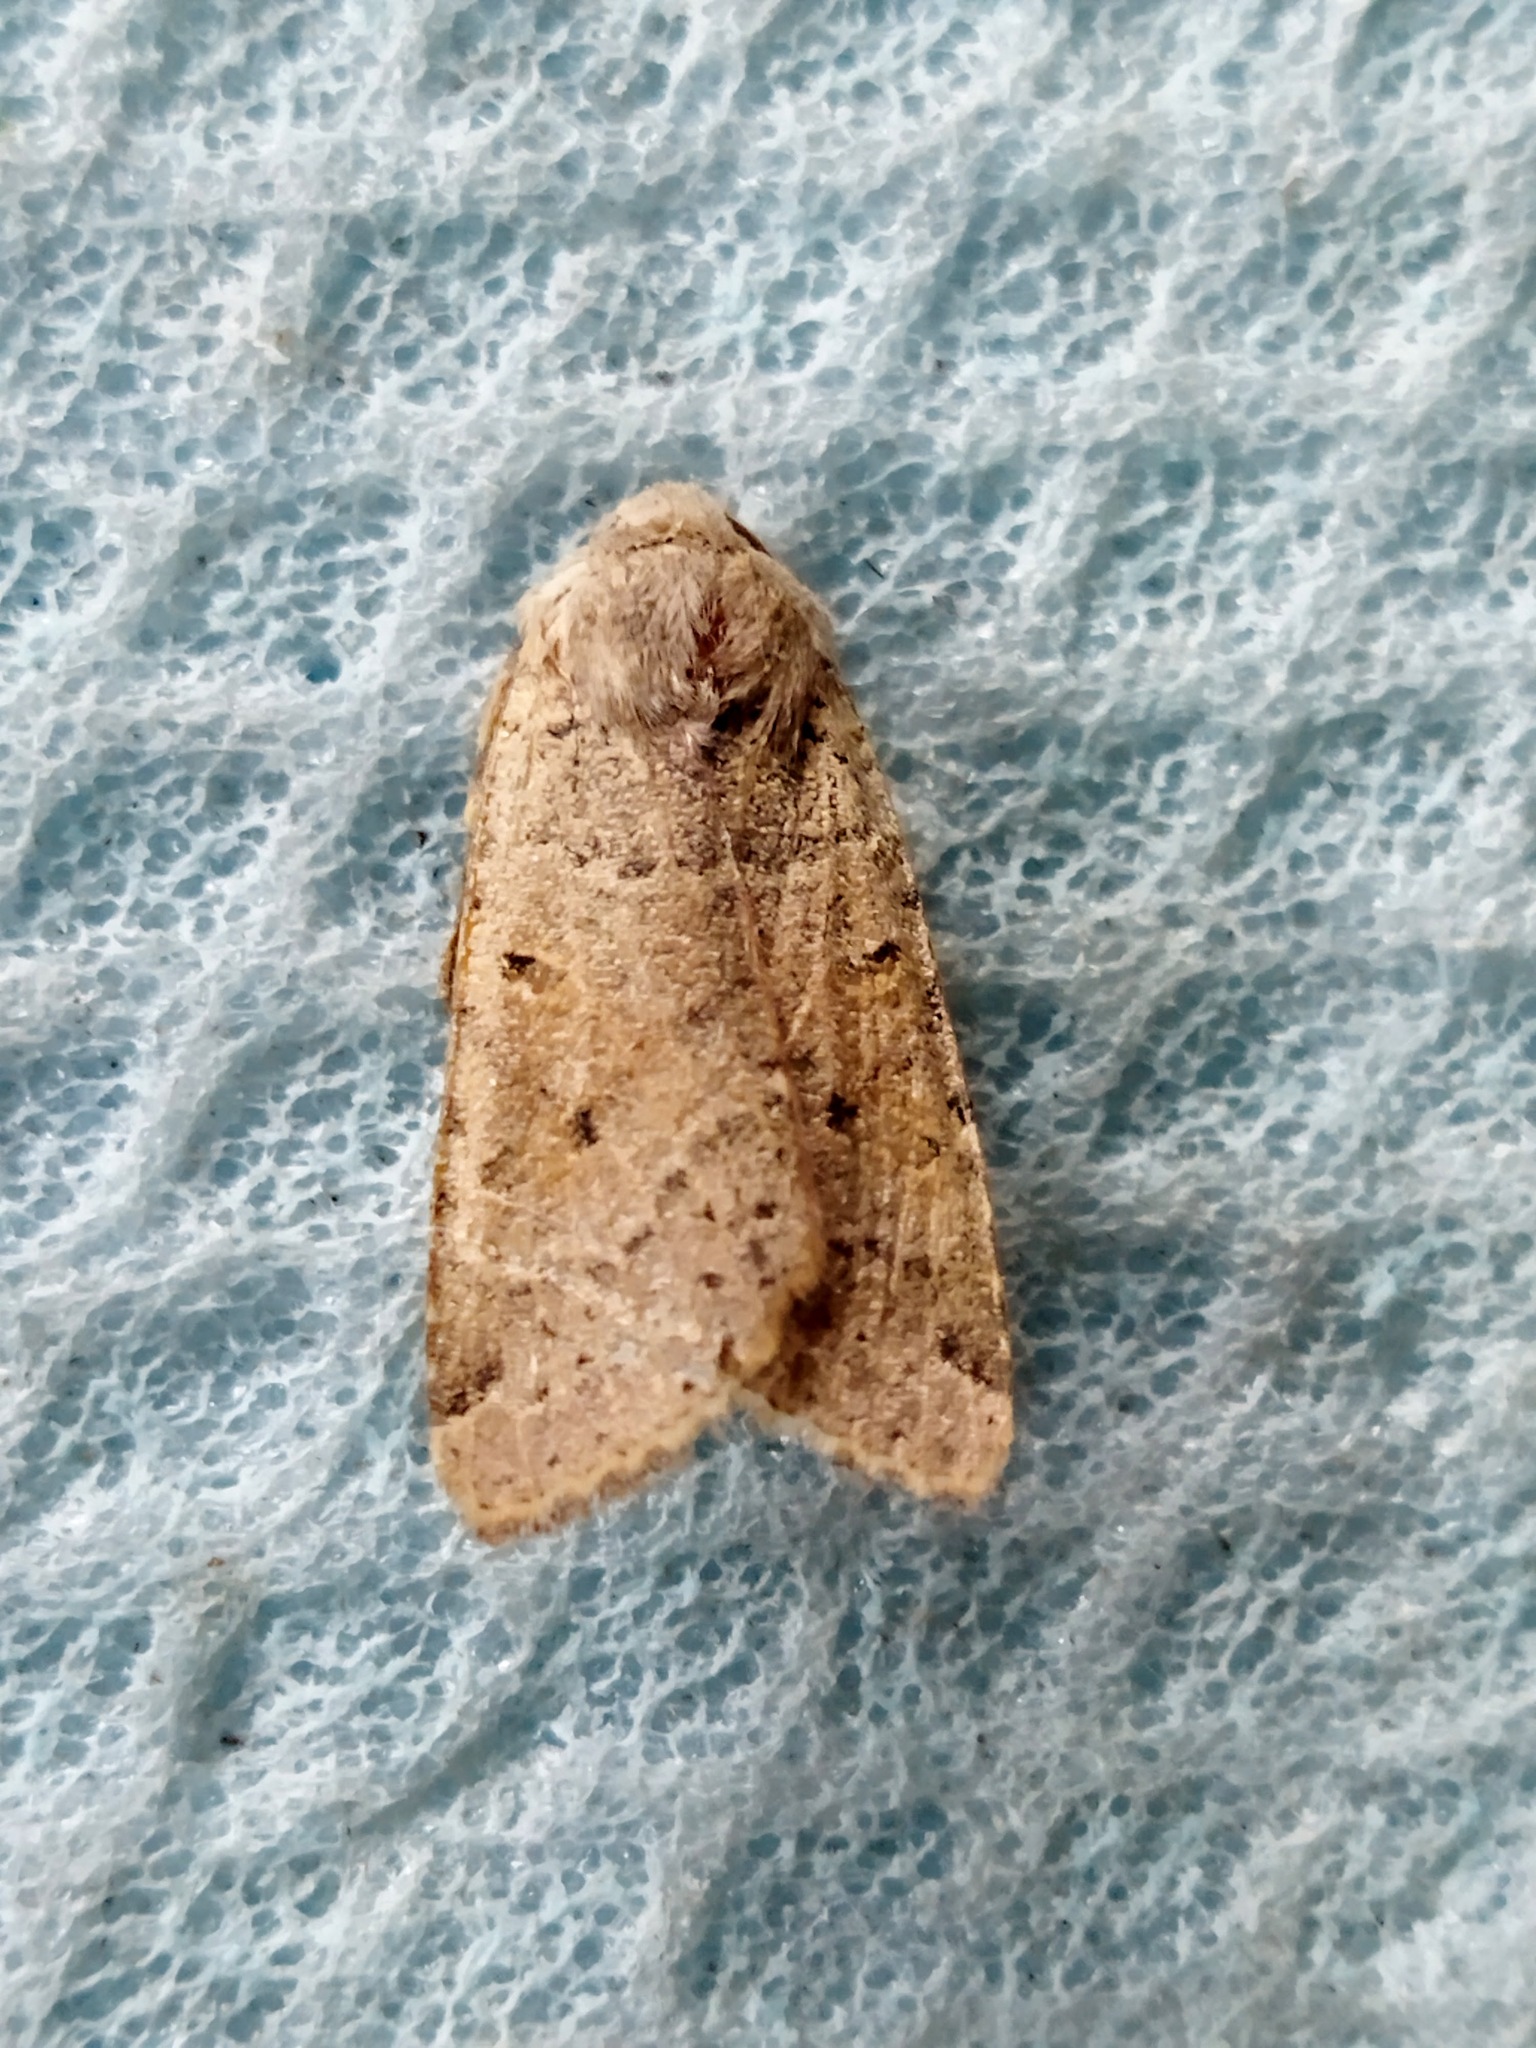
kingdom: Animalia
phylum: Arthropoda
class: Insecta
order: Lepidoptera
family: Noctuidae
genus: Agrochola
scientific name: Agrochola lychnidis
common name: Beaded chestnut
